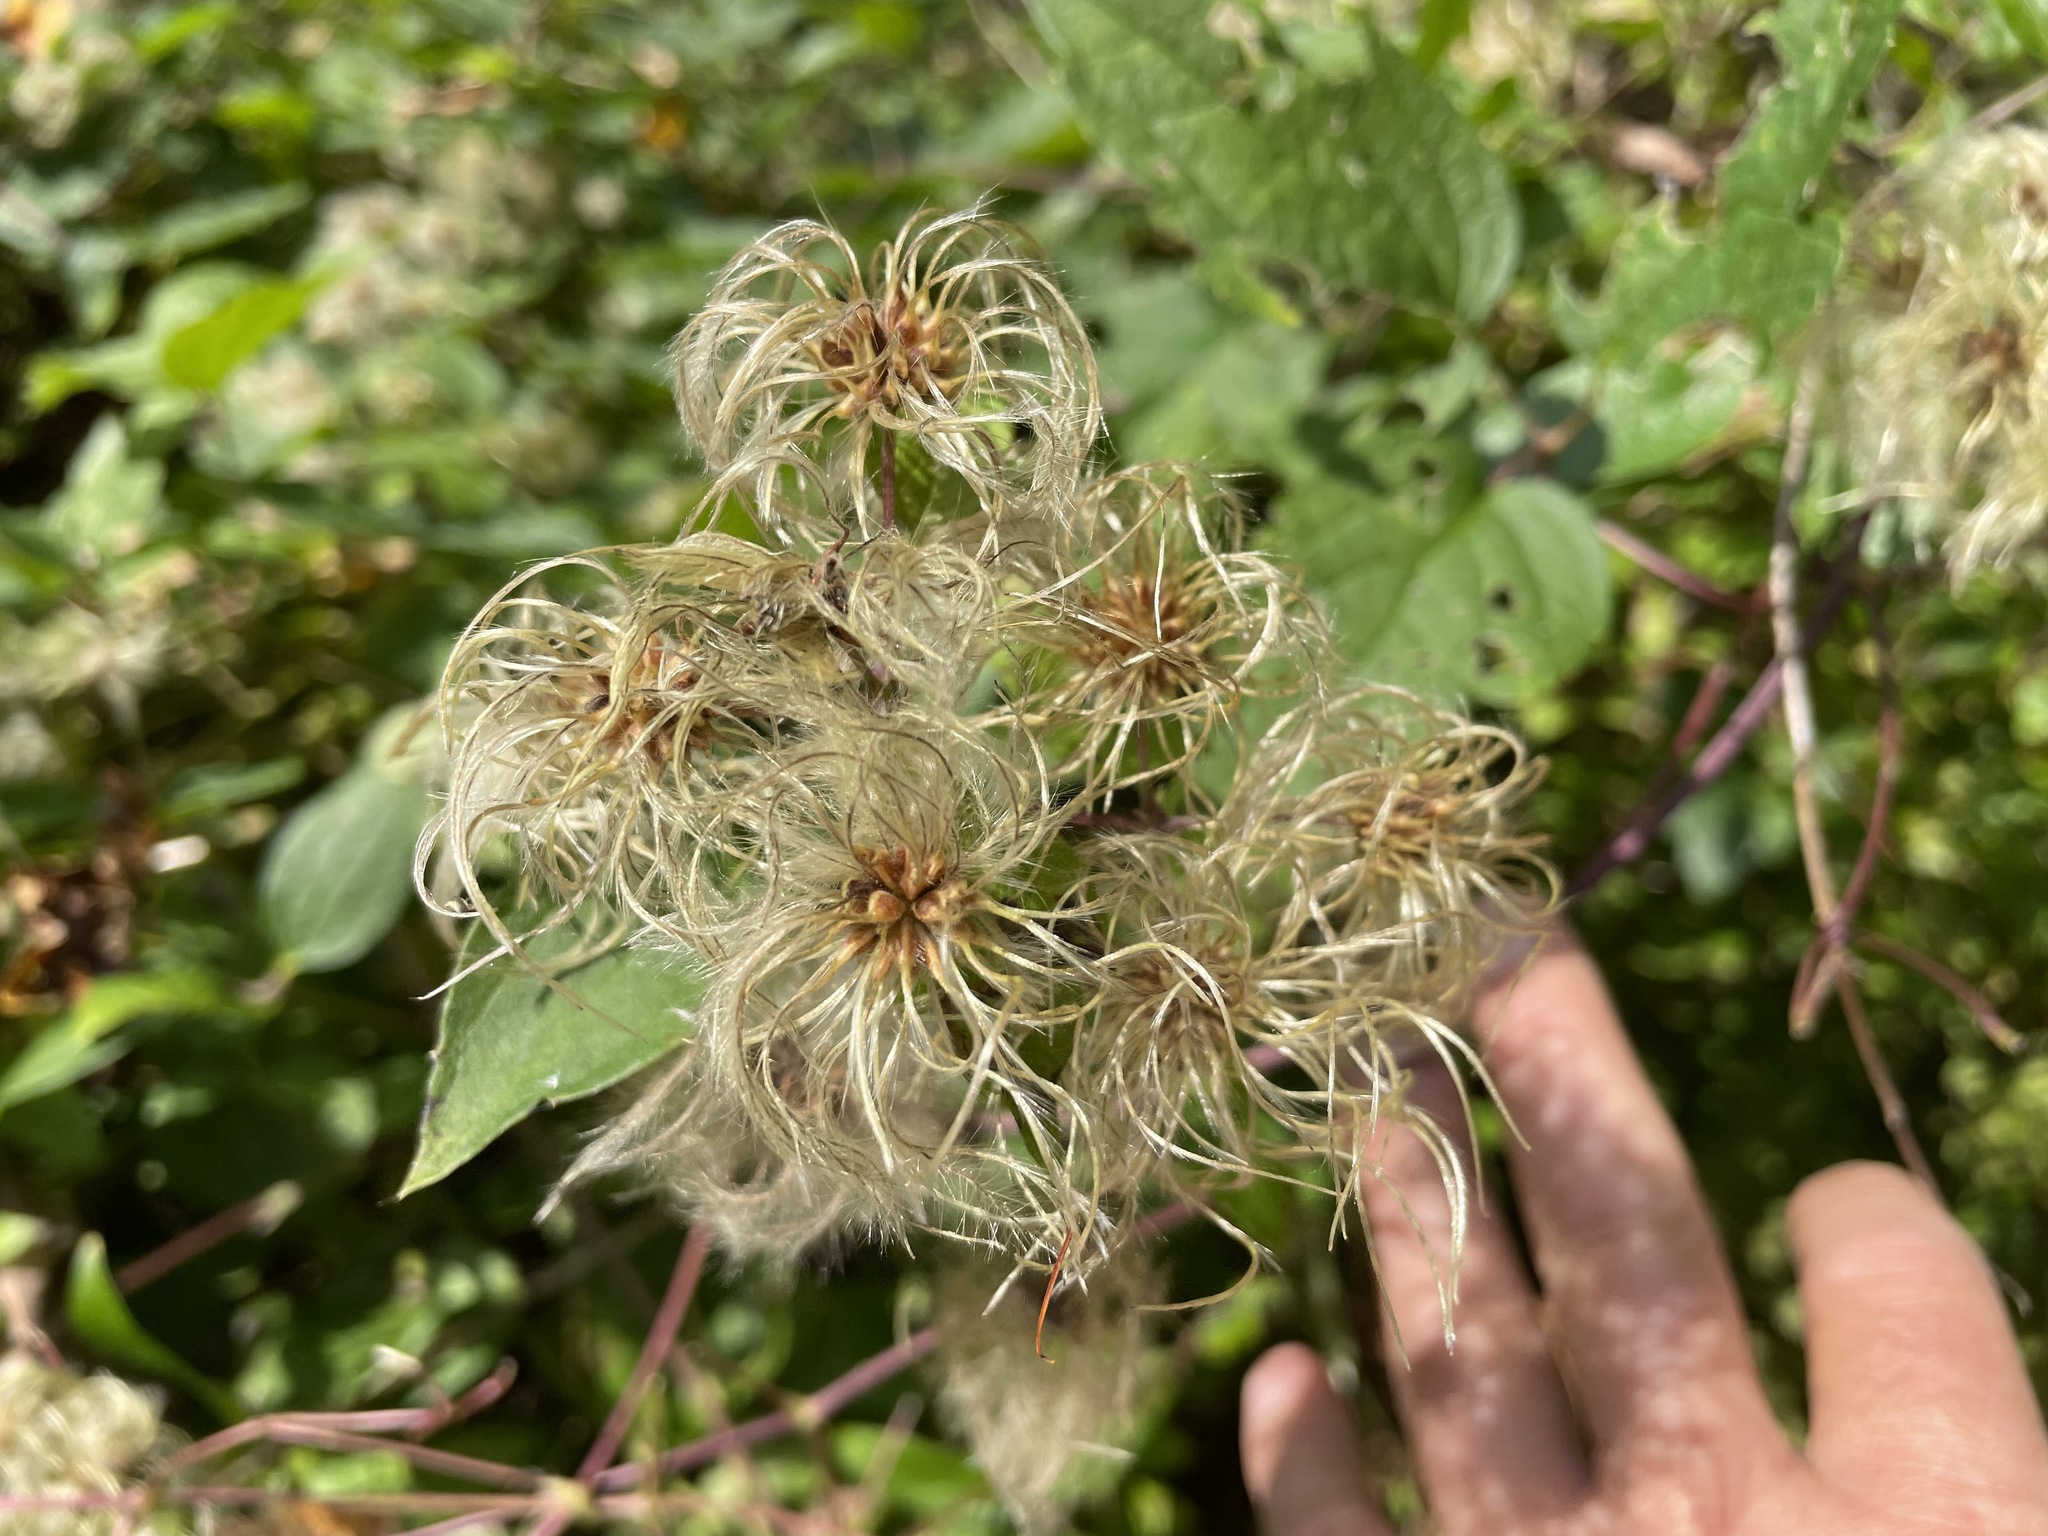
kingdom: Plantae
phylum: Tracheophyta
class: Magnoliopsida
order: Ranunculales
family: Ranunculaceae
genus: Clematis
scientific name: Clematis virginiana
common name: Virgin's-bower
